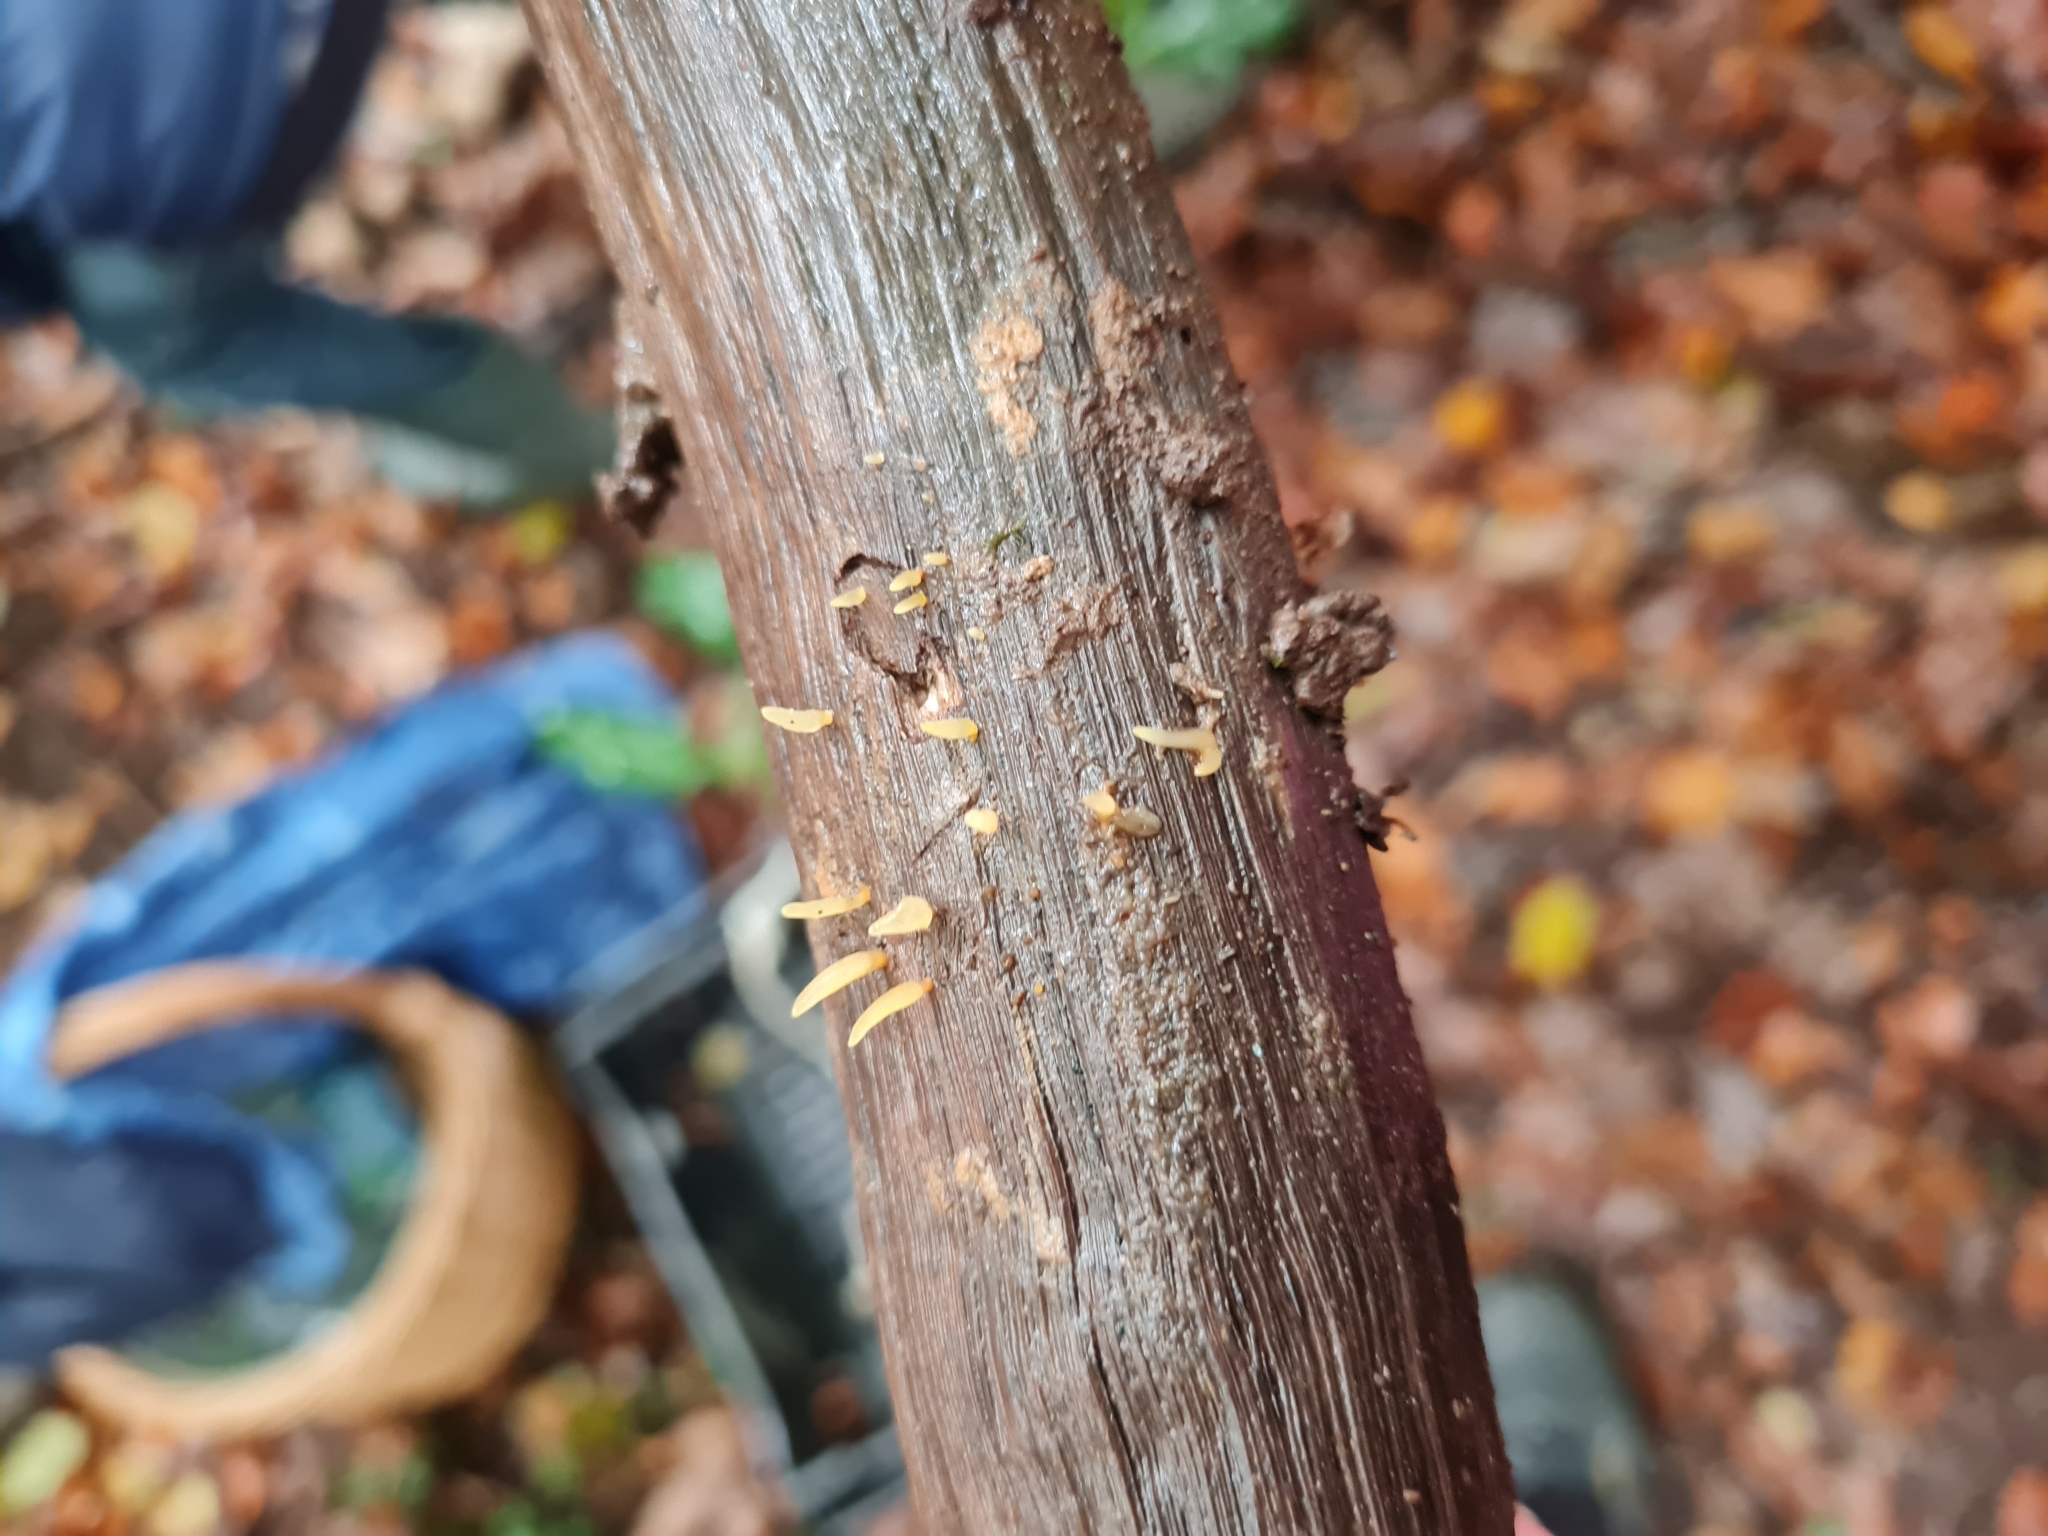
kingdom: Fungi
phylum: Basidiomycota
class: Dacrymycetes
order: Dacrymycetales
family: Dacrymycetaceae
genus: Calocera
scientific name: Calocera cornea
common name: Small stagshorn
